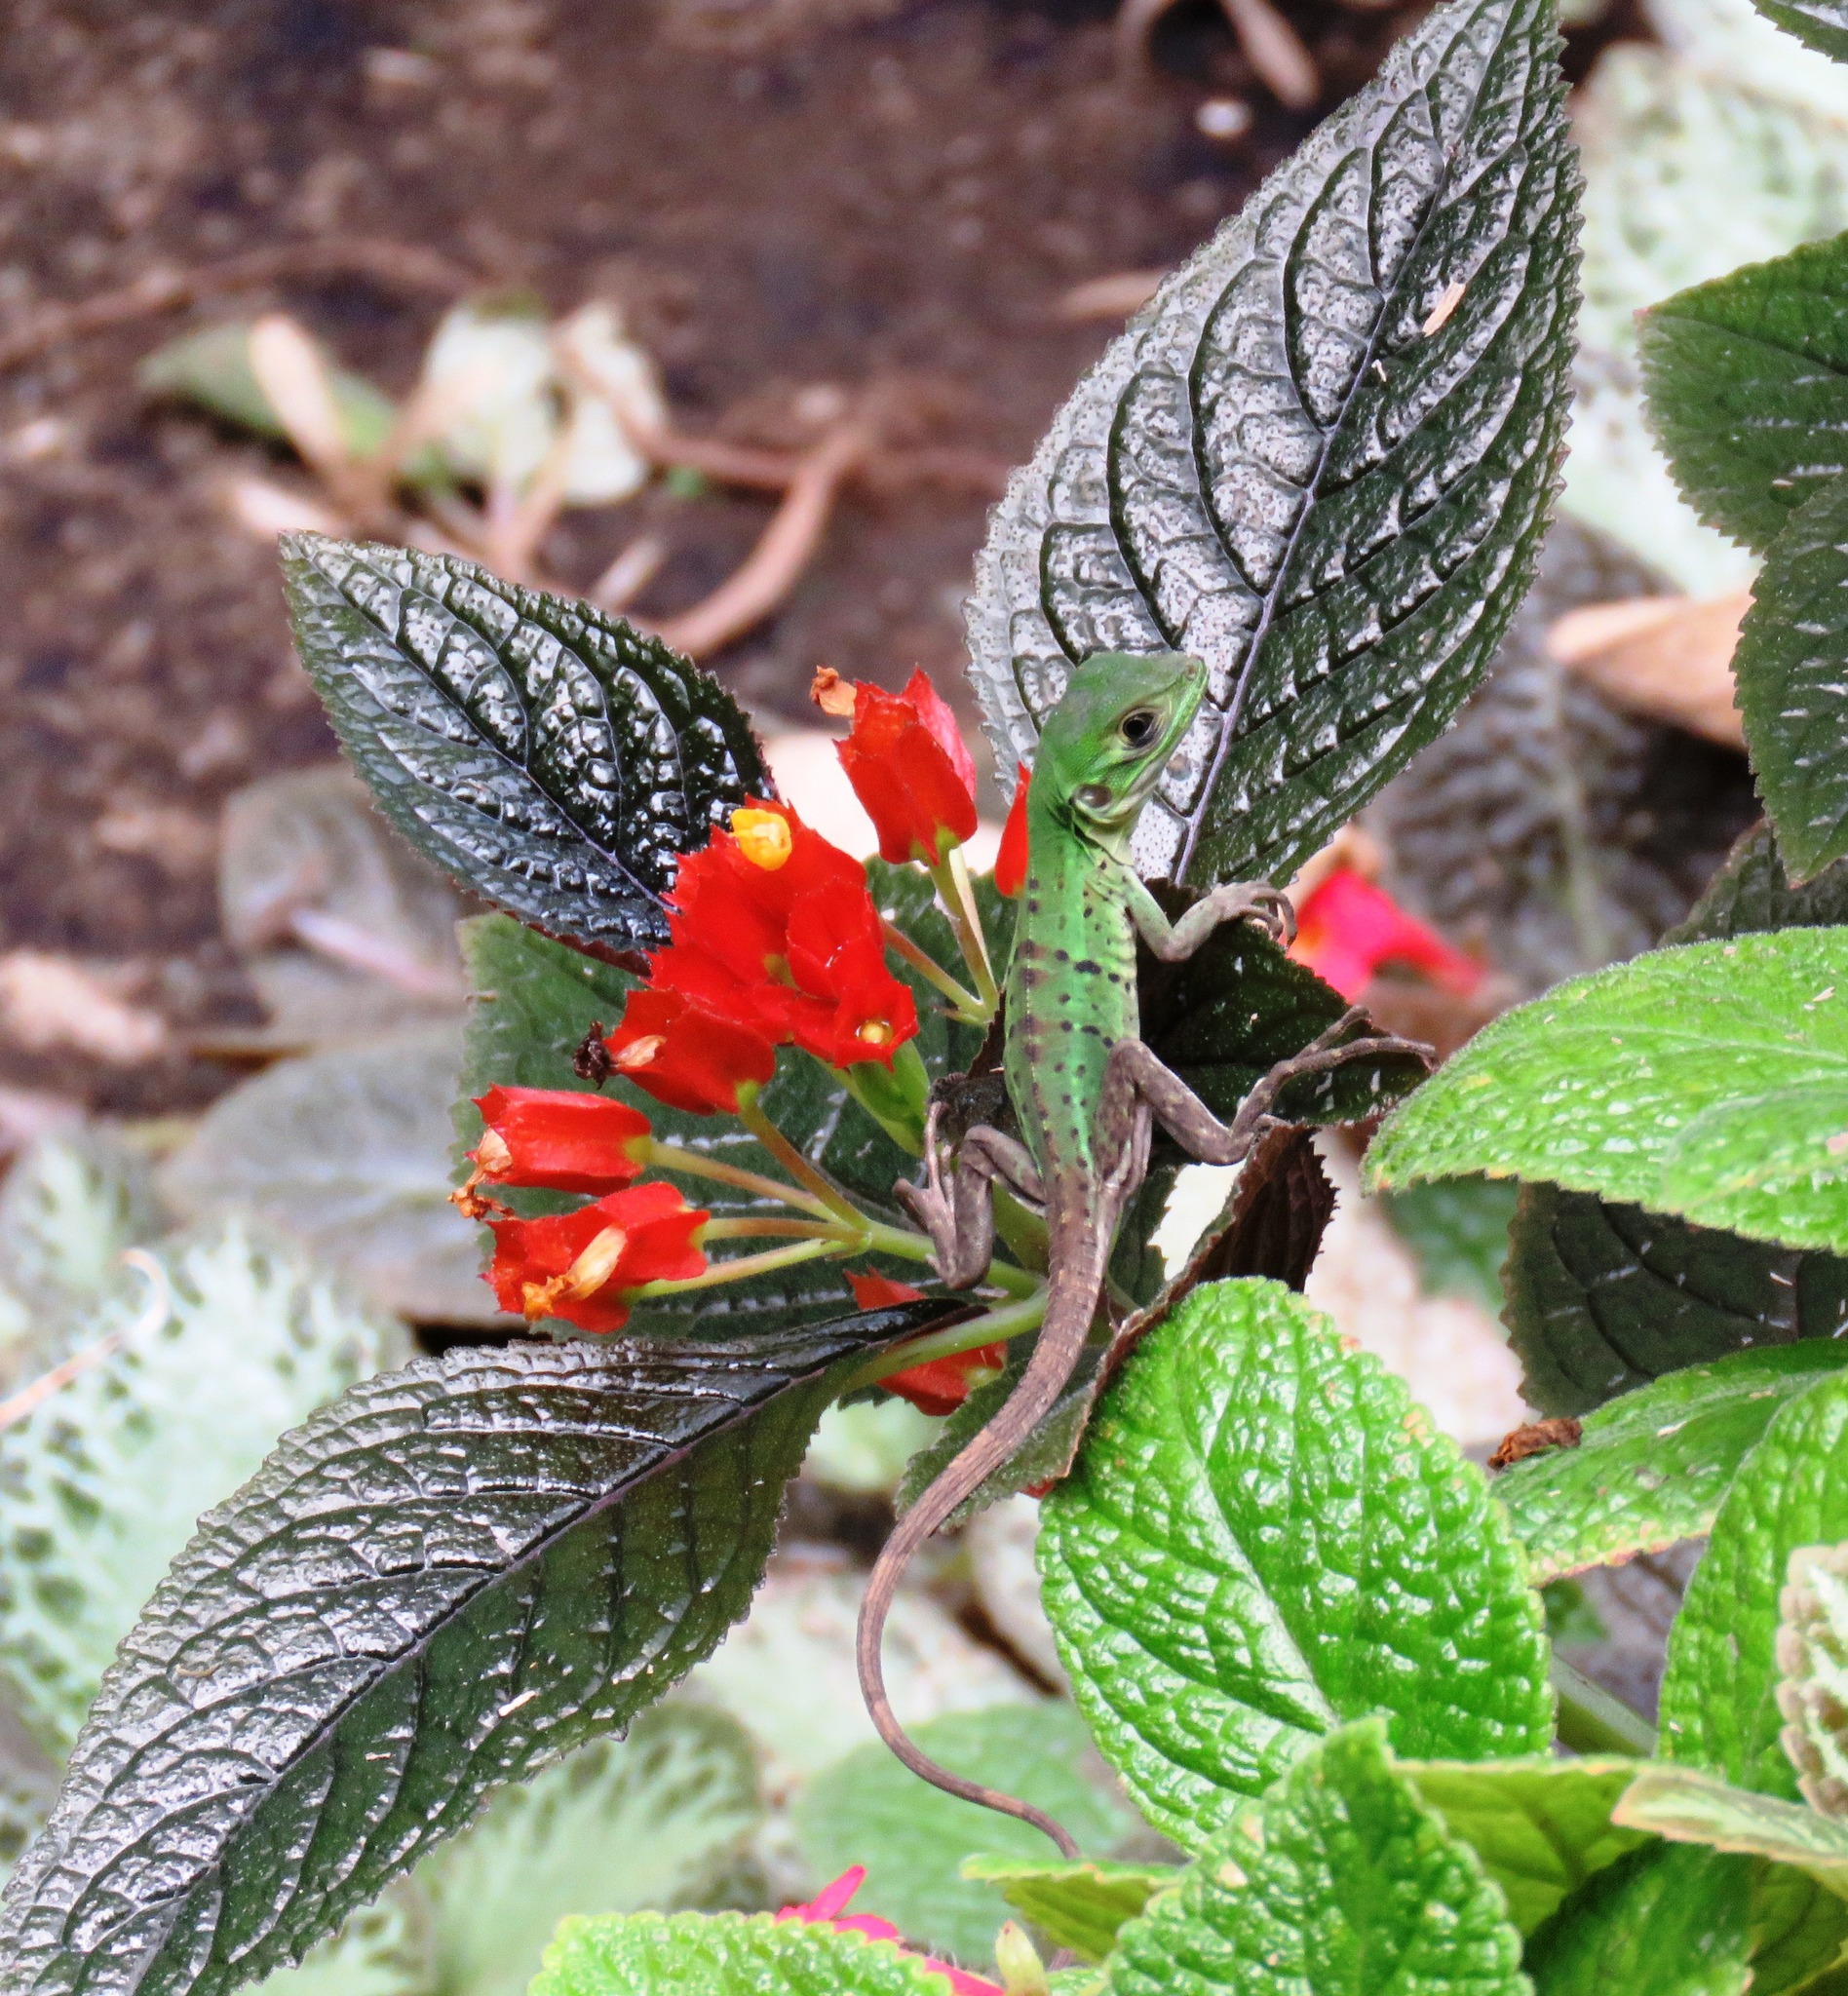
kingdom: Animalia
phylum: Chordata
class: Squamata
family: Iguanidae
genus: Ctenosaura
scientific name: Ctenosaura similis
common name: Black spiny-tailed iguana
